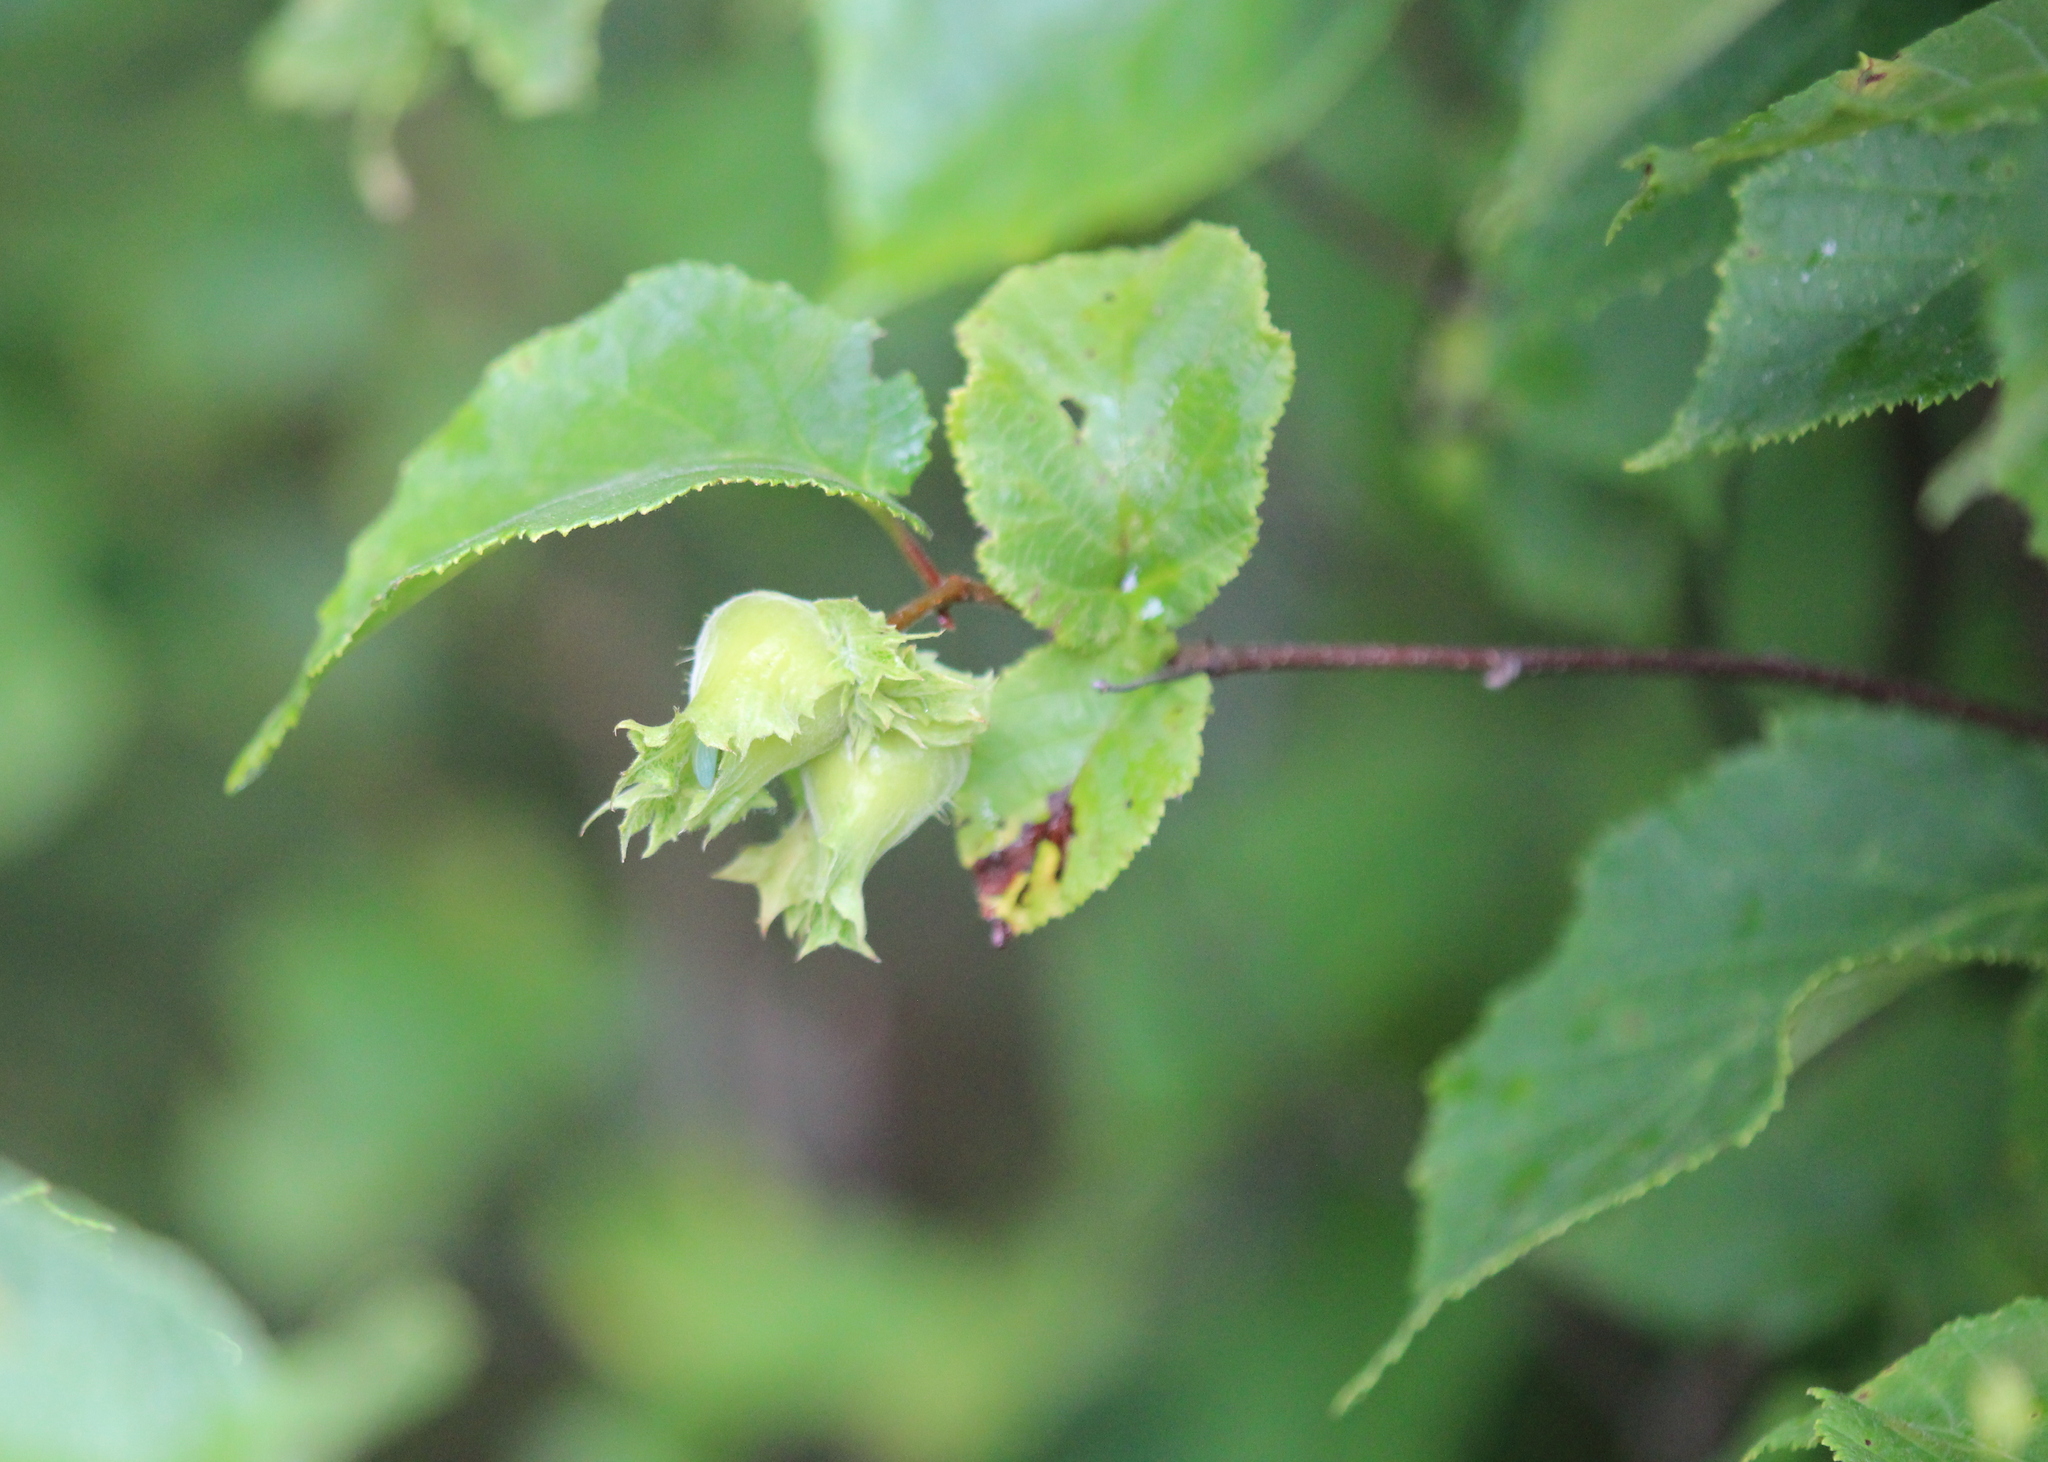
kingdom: Plantae
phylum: Tracheophyta
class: Magnoliopsida
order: Fagales
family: Betulaceae
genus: Corylus
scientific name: Corylus americana
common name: American hazel
